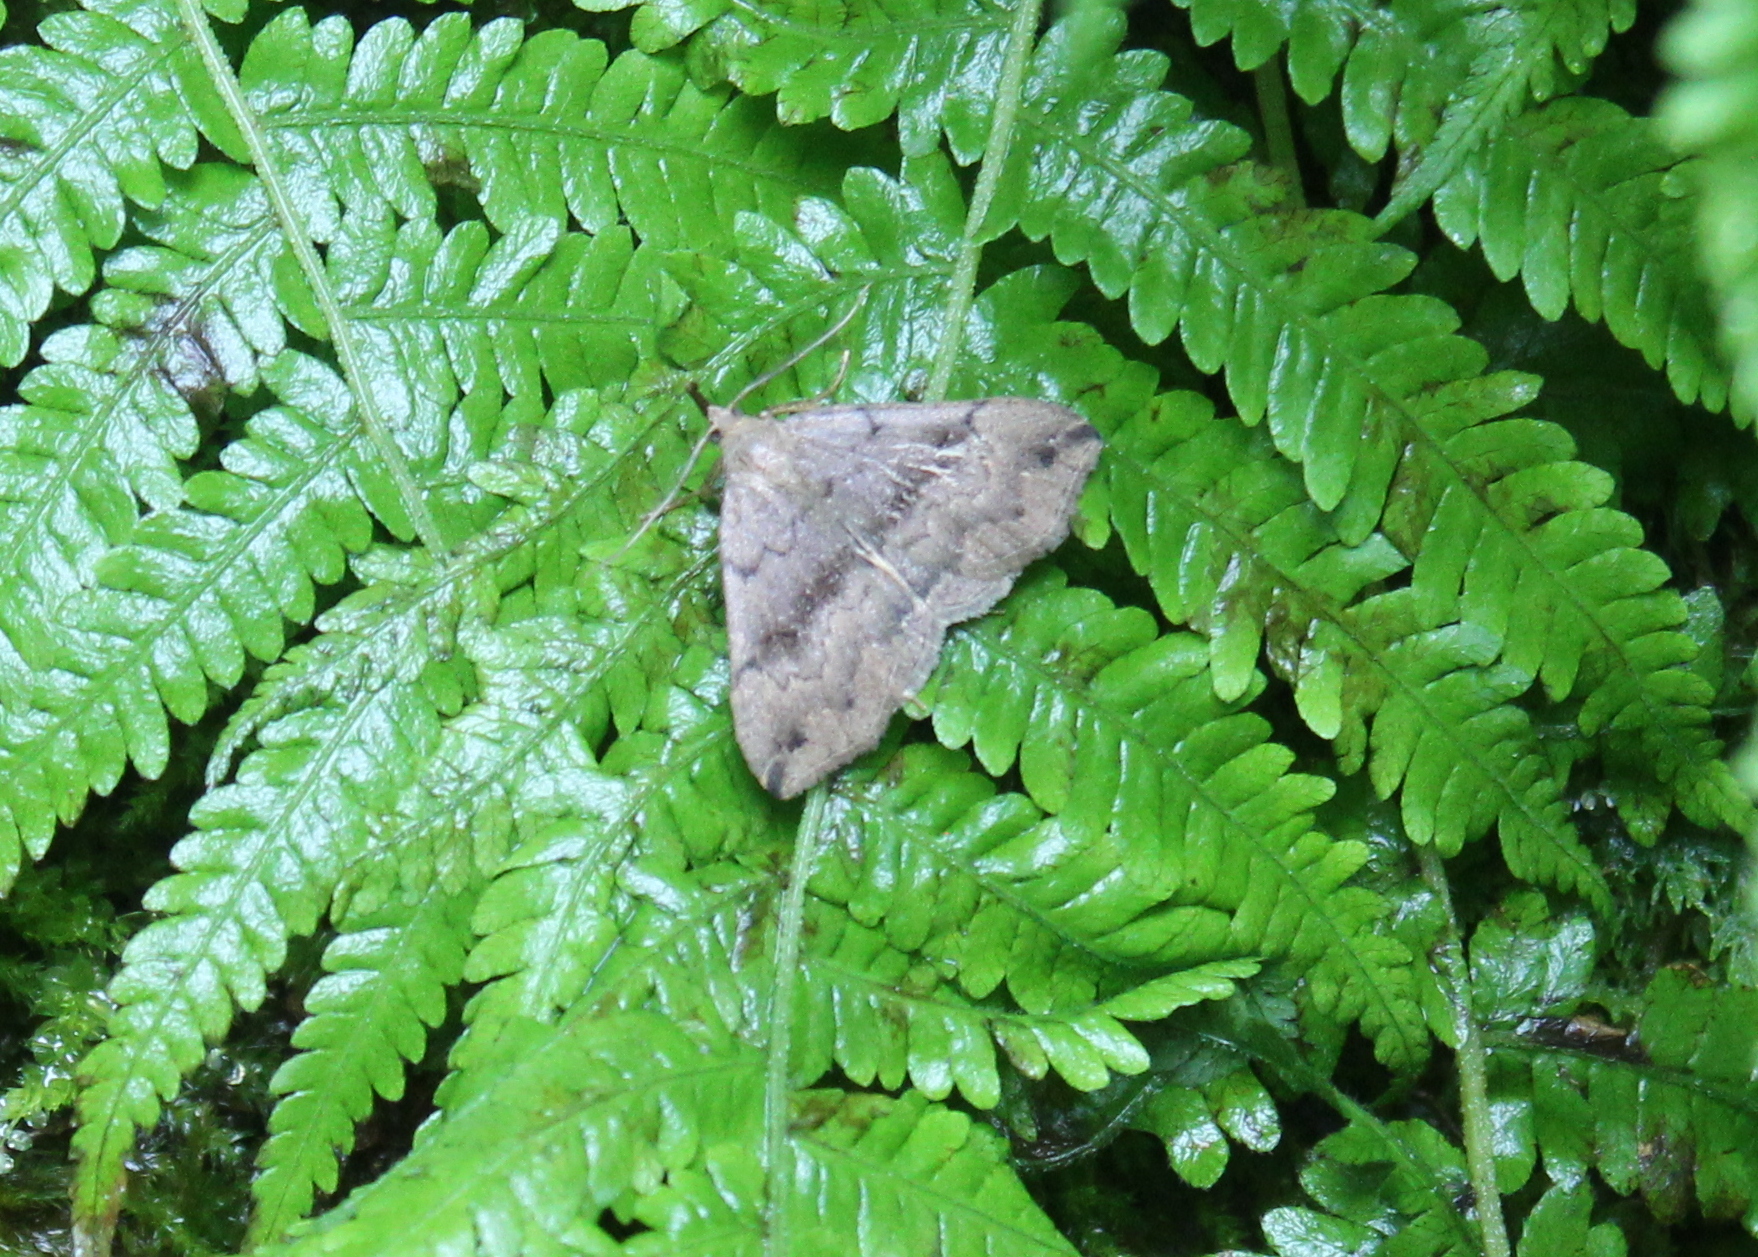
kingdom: Animalia
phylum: Arthropoda
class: Insecta
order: Lepidoptera
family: Erebidae
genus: Phalaenostola
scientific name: Phalaenostola eumelusalis
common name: Dark phalaenostola moth
